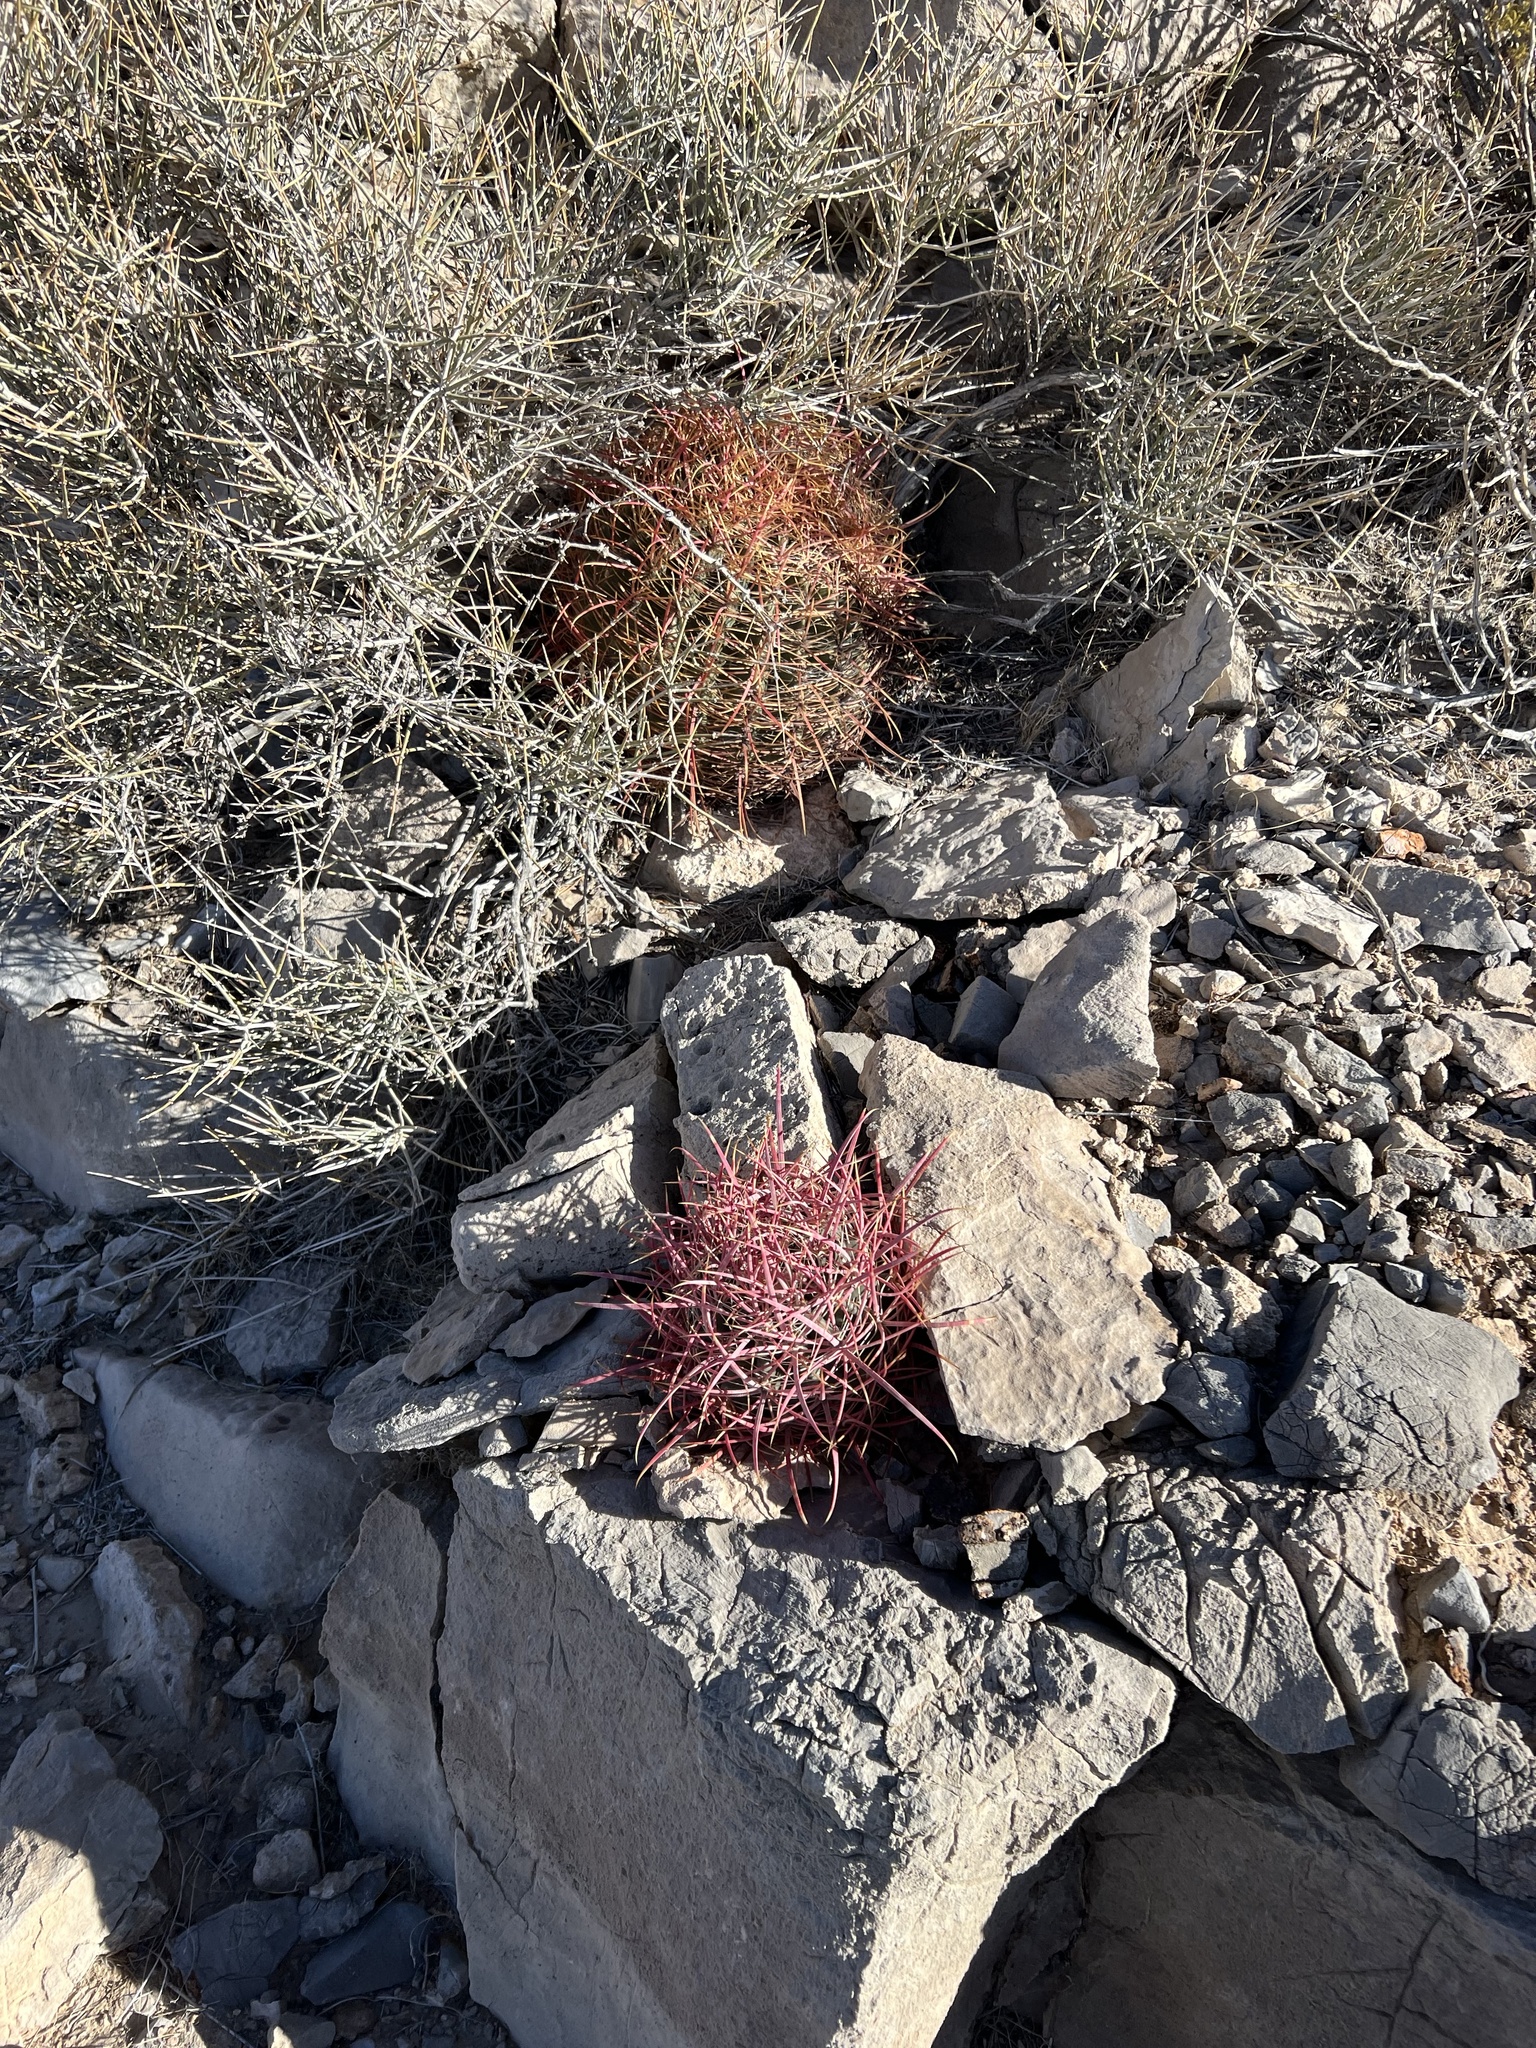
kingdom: Plantae
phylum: Tracheophyta
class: Magnoliopsida
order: Caryophyllales
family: Cactaceae
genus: Ferocactus
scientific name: Ferocactus cylindraceus
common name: California barrel cactus
